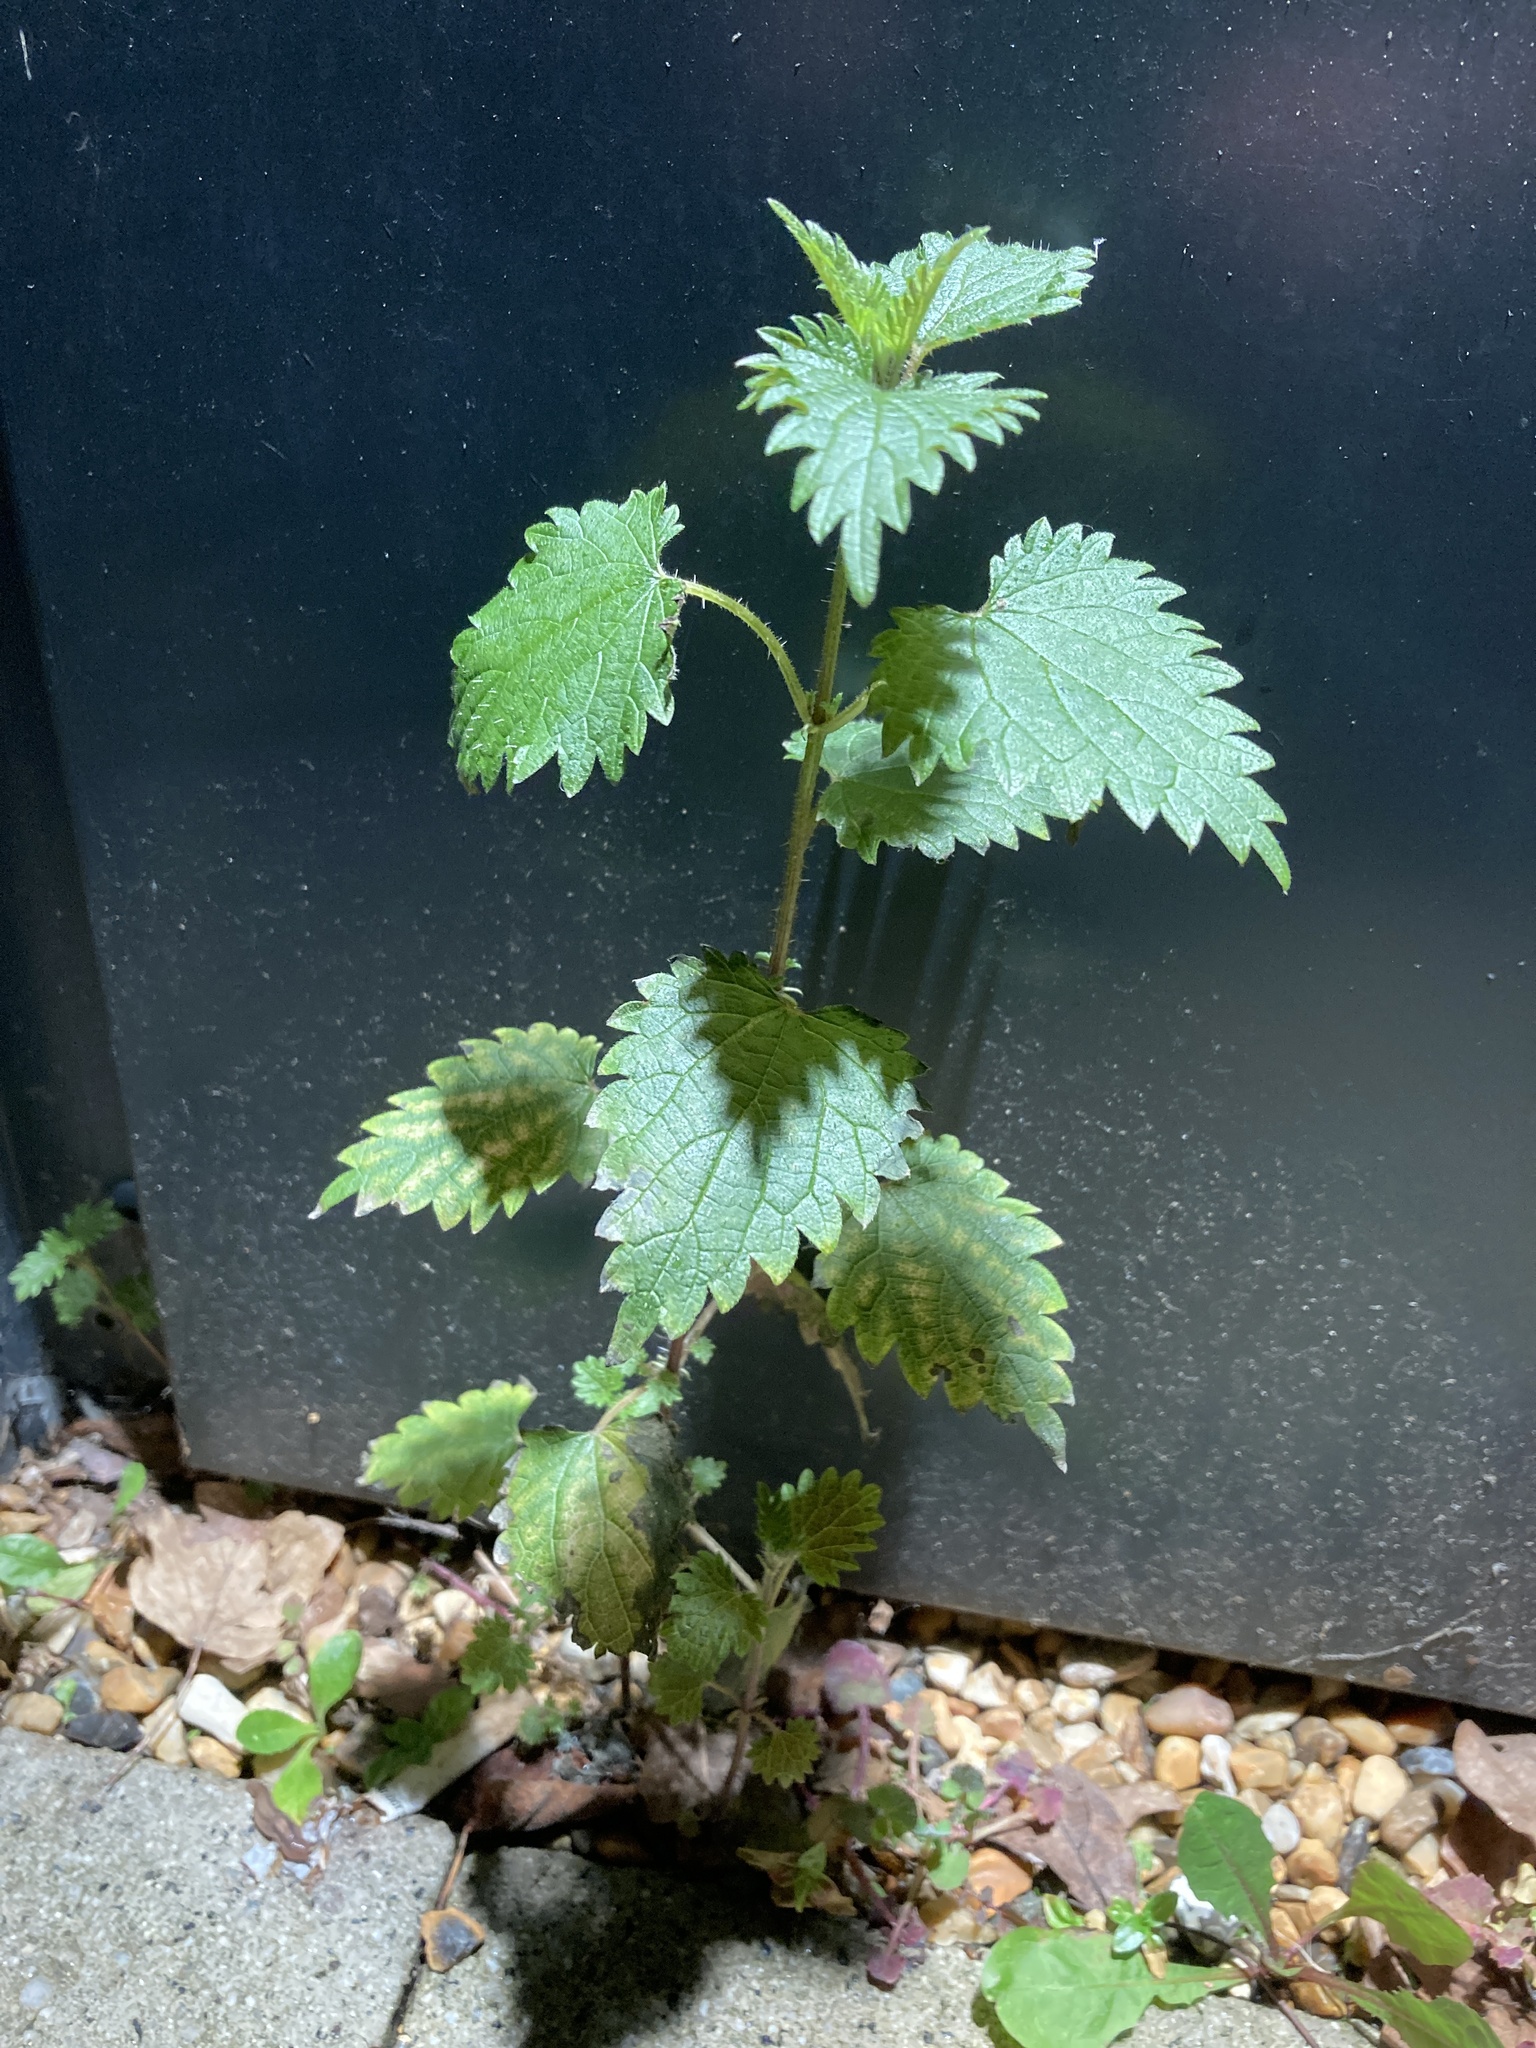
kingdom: Plantae
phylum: Tracheophyta
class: Magnoliopsida
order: Rosales
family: Urticaceae
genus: Urtica
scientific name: Urtica dioica
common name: Common nettle
